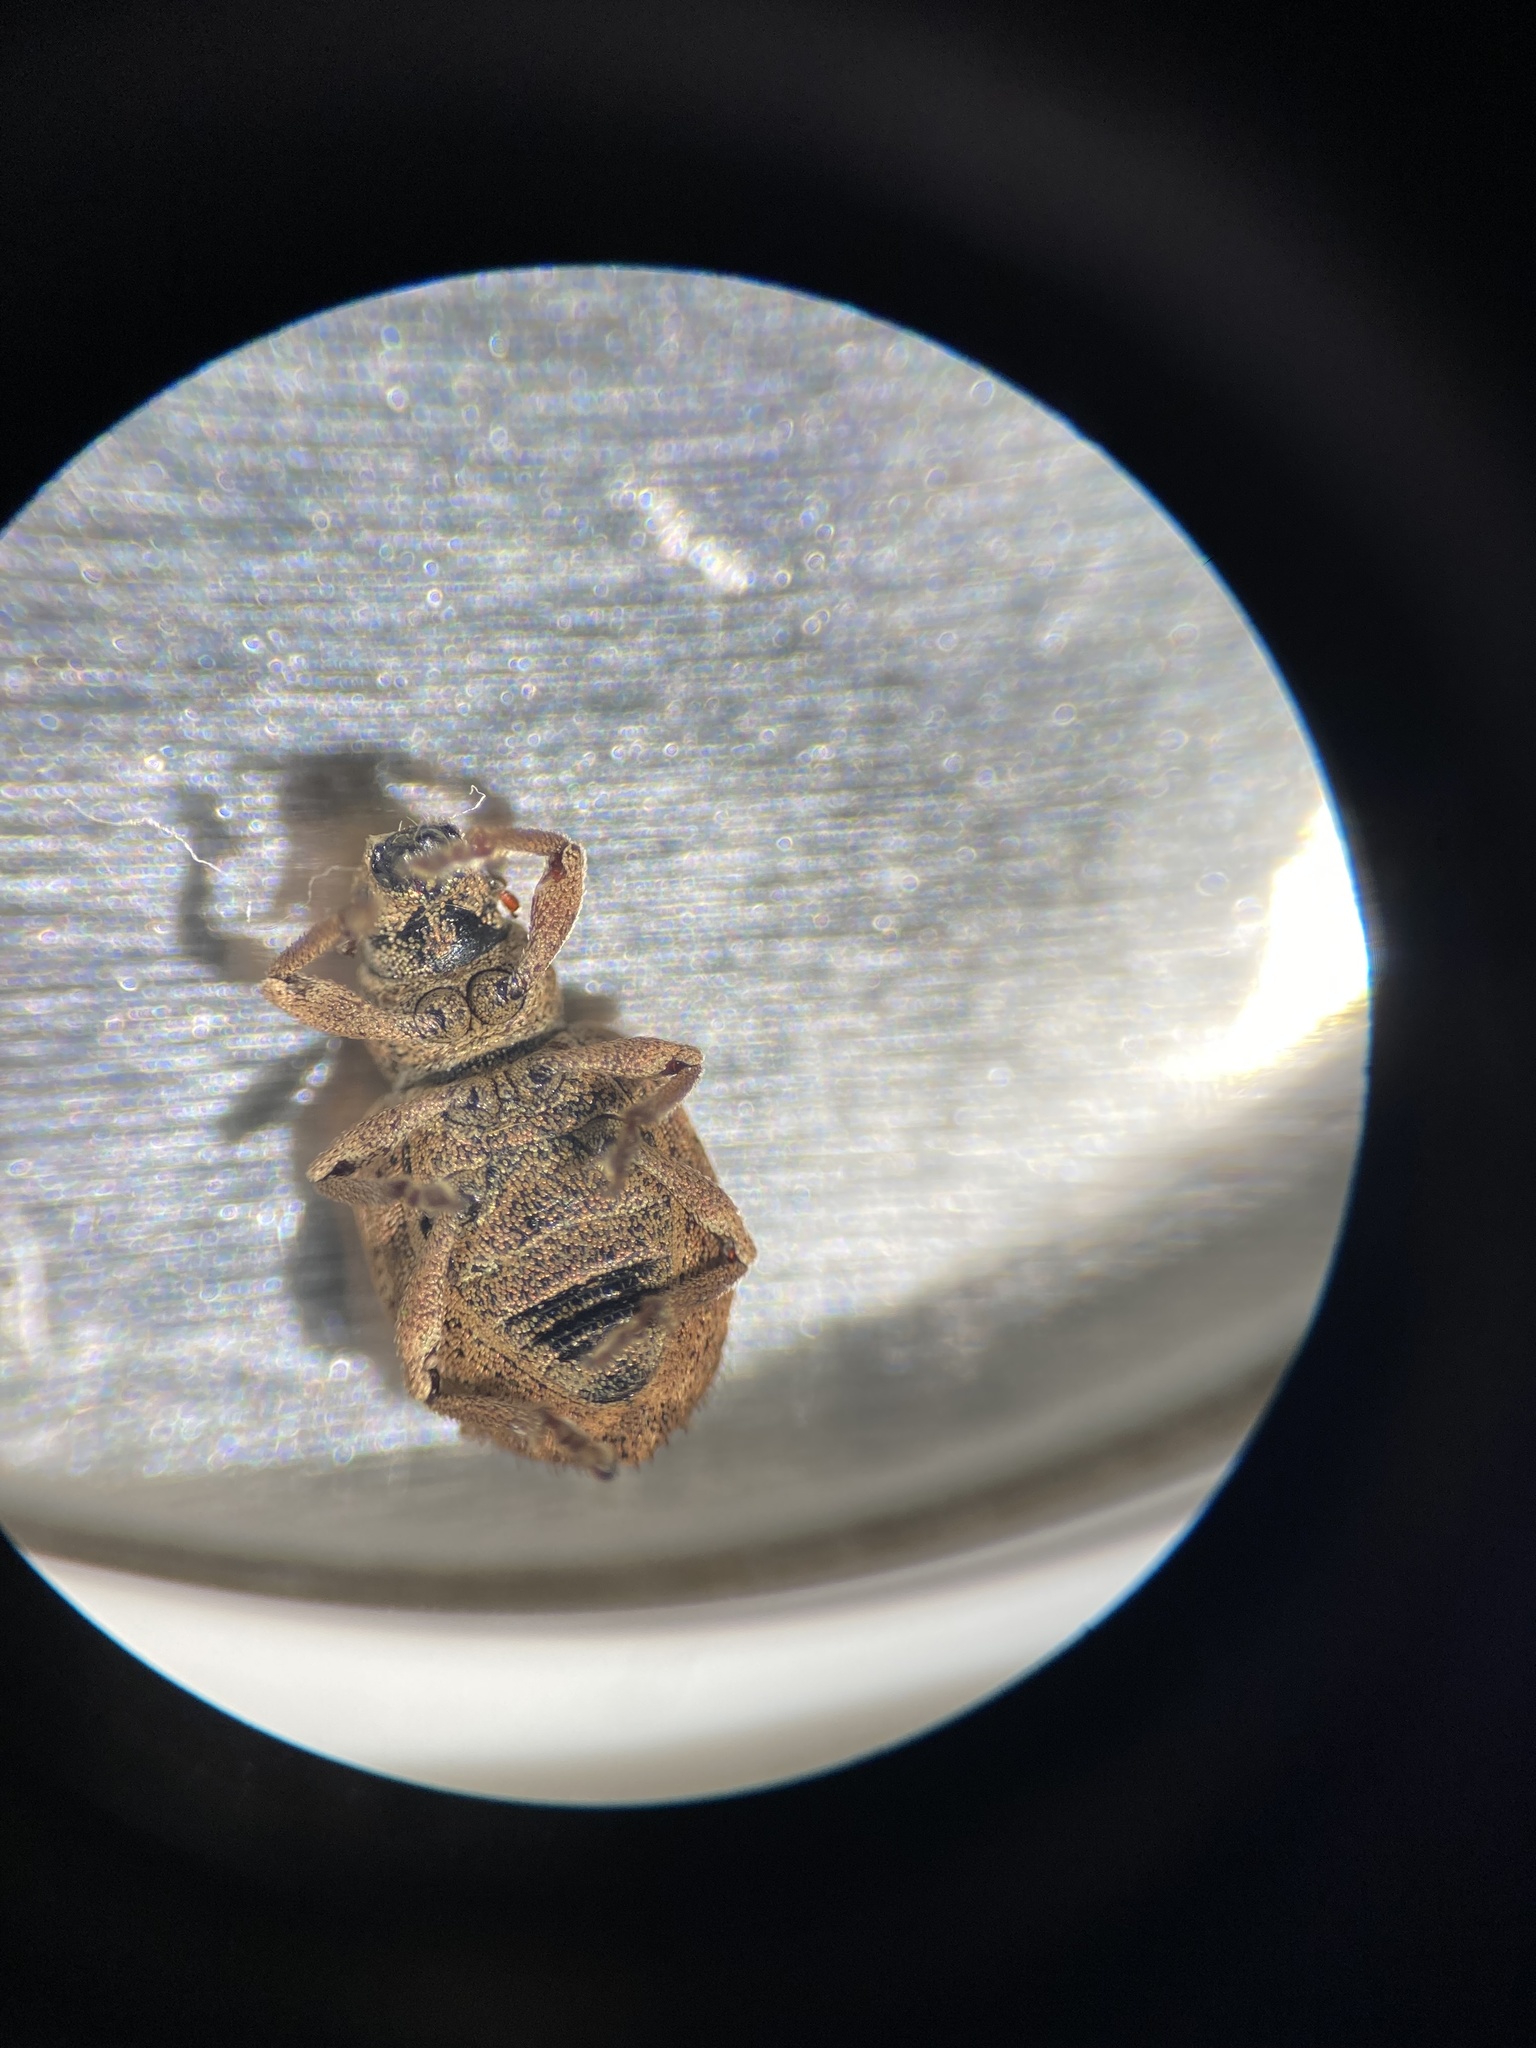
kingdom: Animalia
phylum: Arthropoda
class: Insecta
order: Coleoptera
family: Curculionidae
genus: Strophosoma
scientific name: Strophosoma melanogrammum
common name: Weevil
